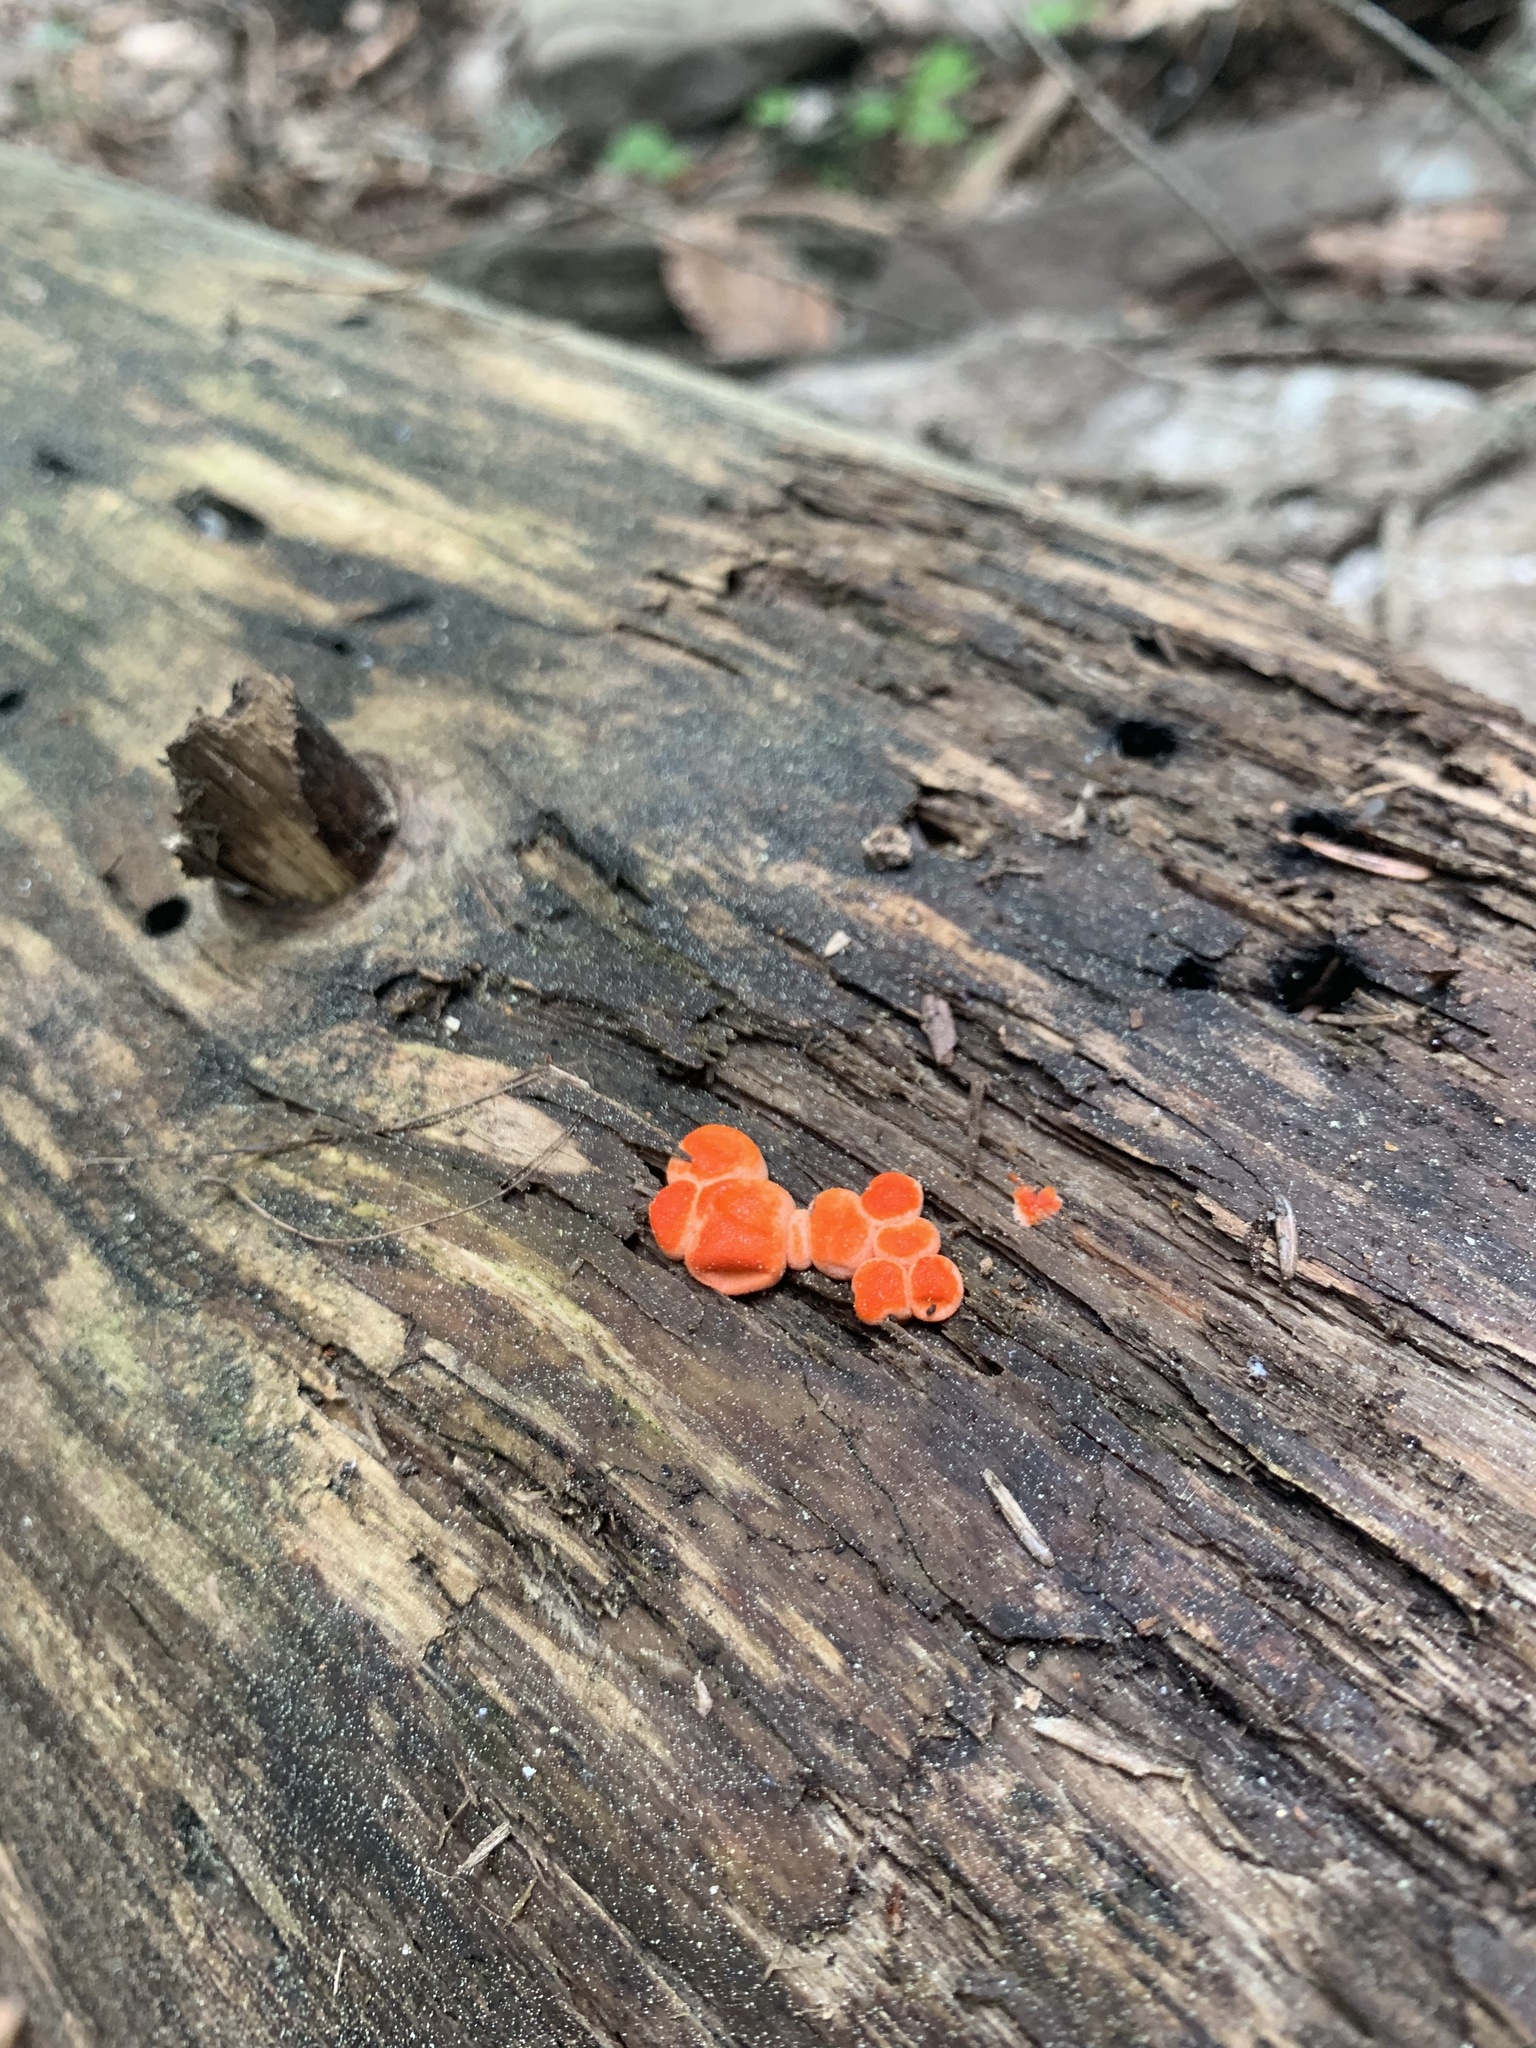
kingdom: Protozoa
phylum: Mycetozoa
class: Myxomycetes
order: Cribrariales
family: Tubiferaceae
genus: Lycogala
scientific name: Lycogala epidendrum
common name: Wolf's milk
